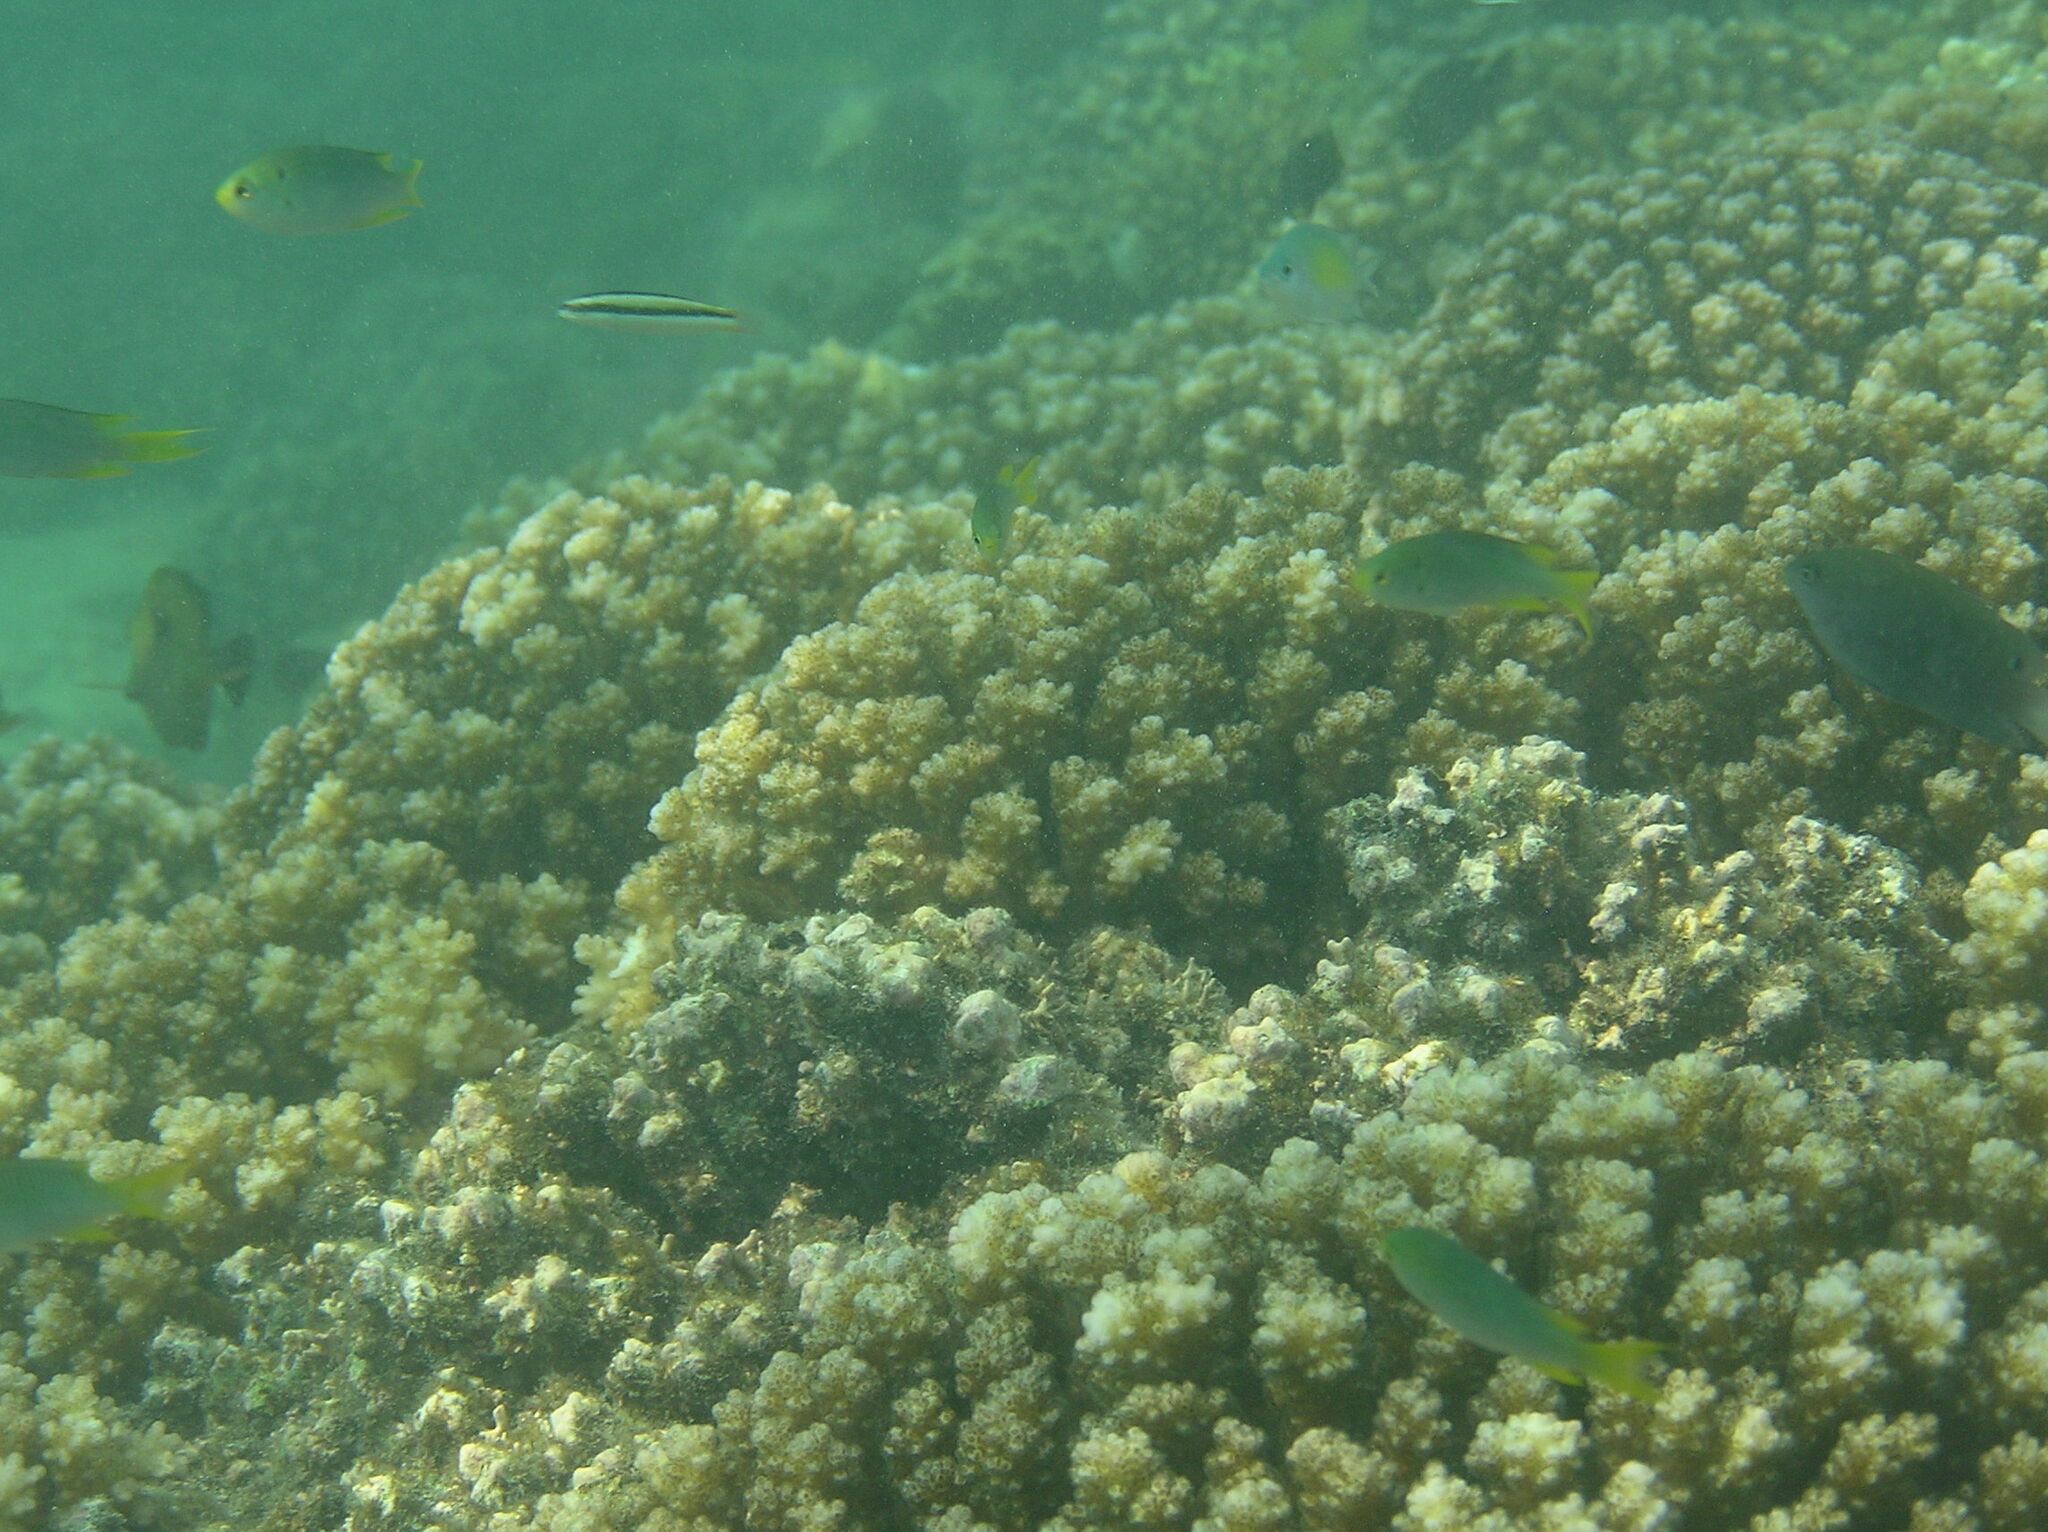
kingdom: Animalia
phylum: Chordata
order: Perciformes
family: Labridae
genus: Thalassoma
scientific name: Thalassoma amblycephalum
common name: Bluehead wrasse
